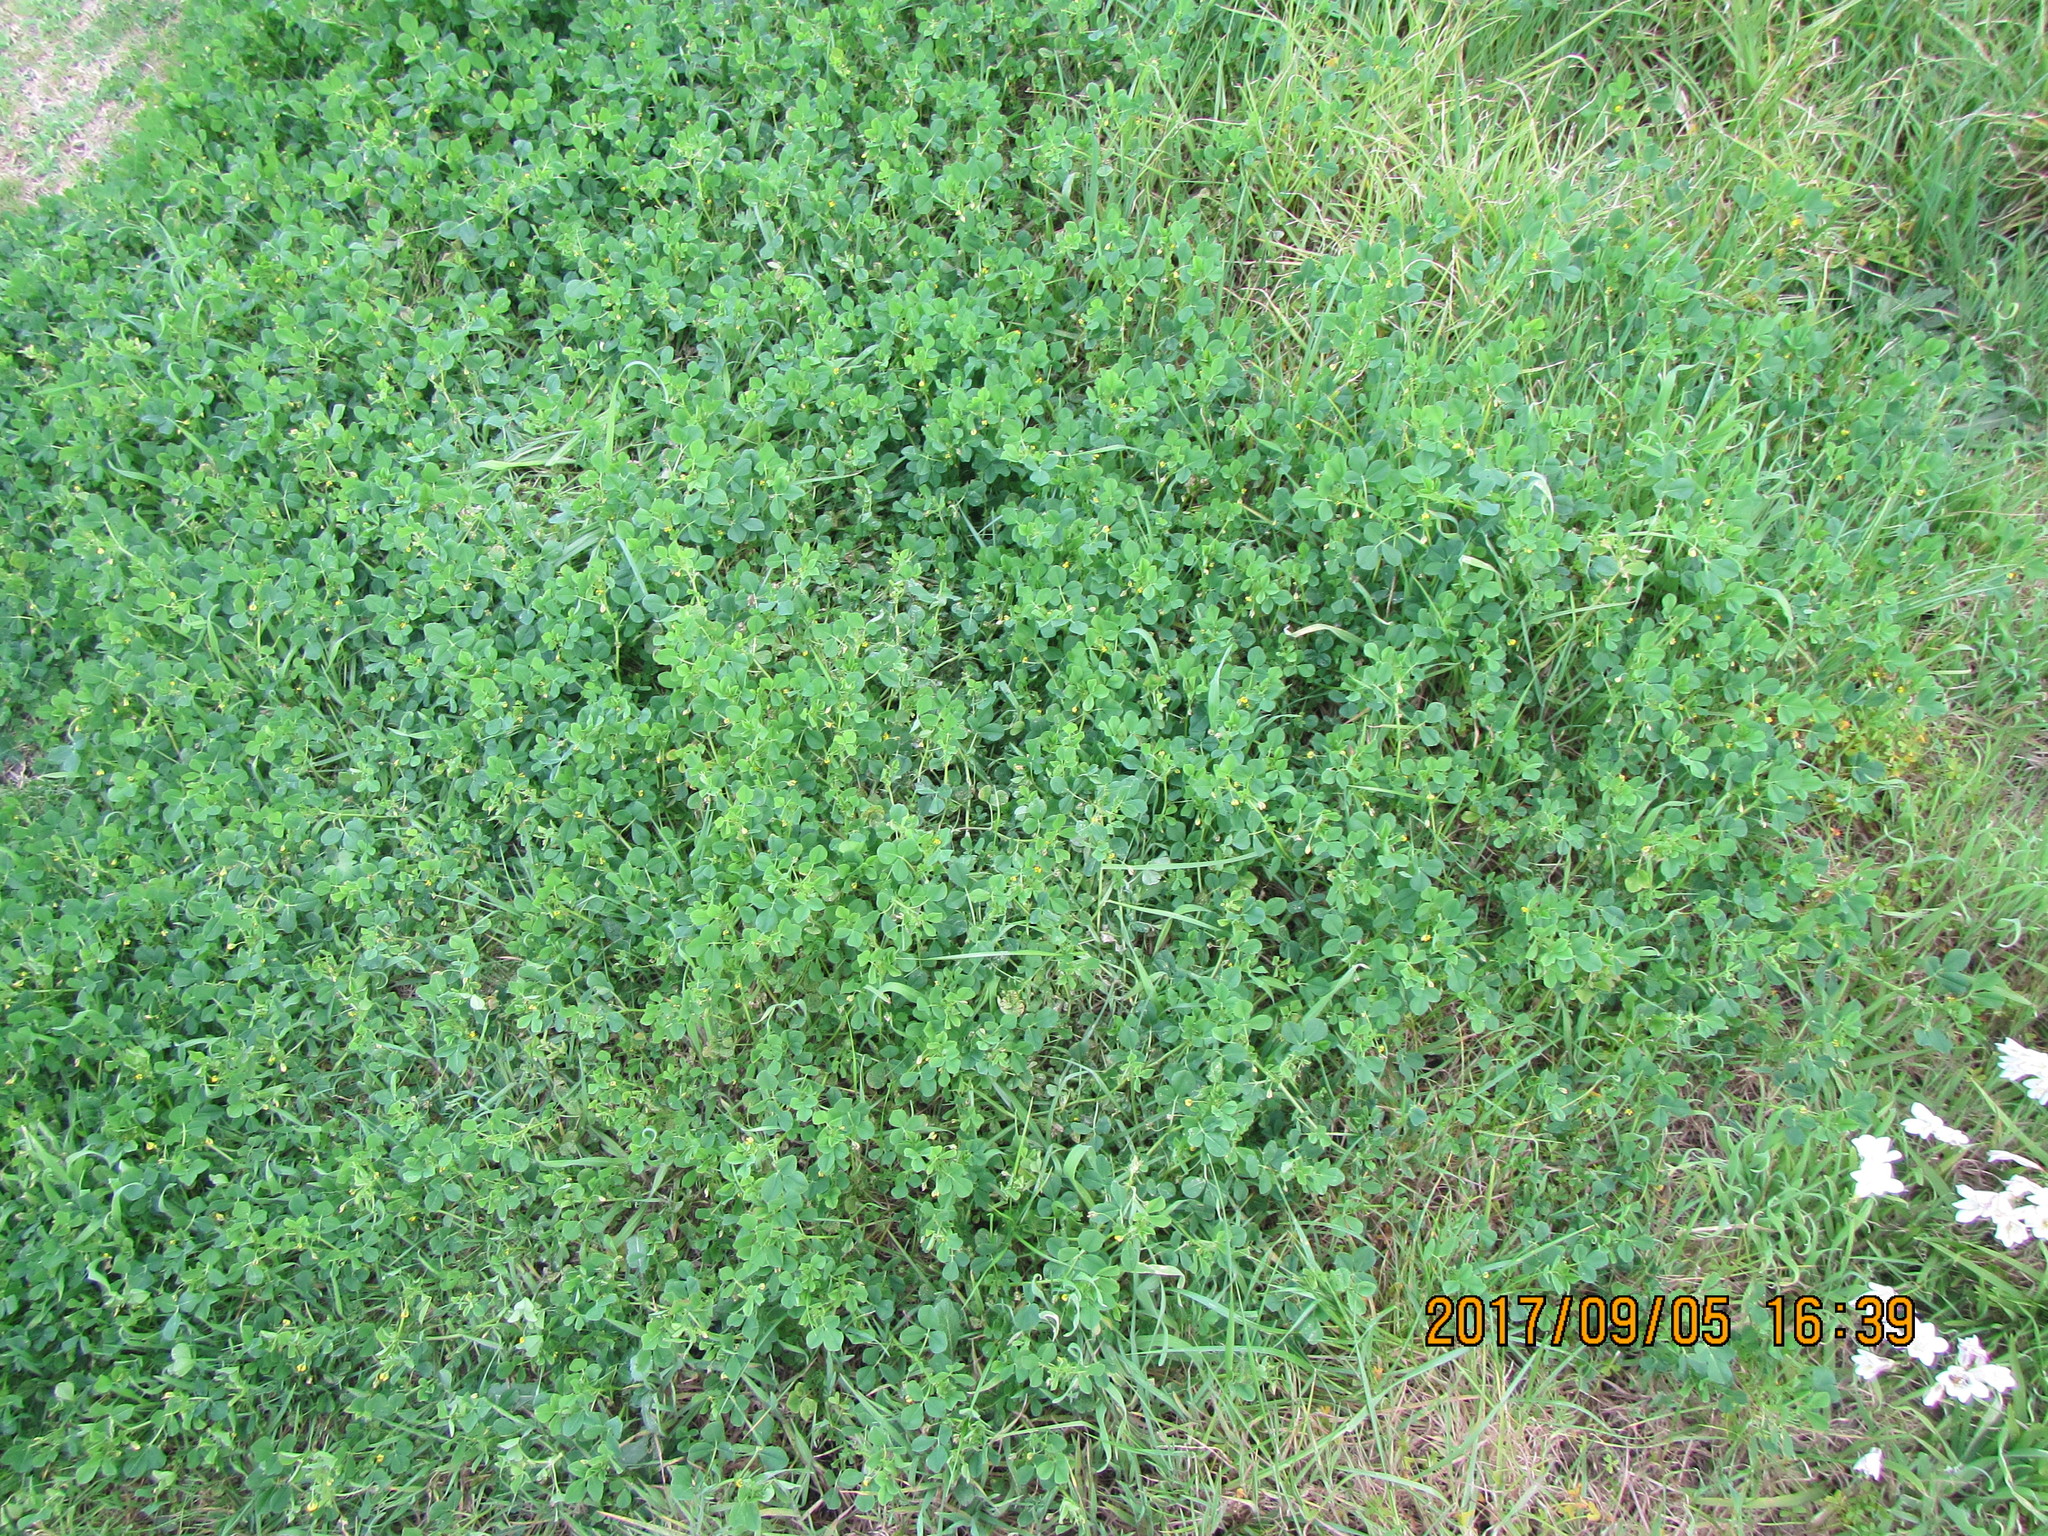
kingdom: Plantae
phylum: Tracheophyta
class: Magnoliopsida
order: Fabales
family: Fabaceae
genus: Medicago
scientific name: Medicago polymorpha
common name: Burclover
